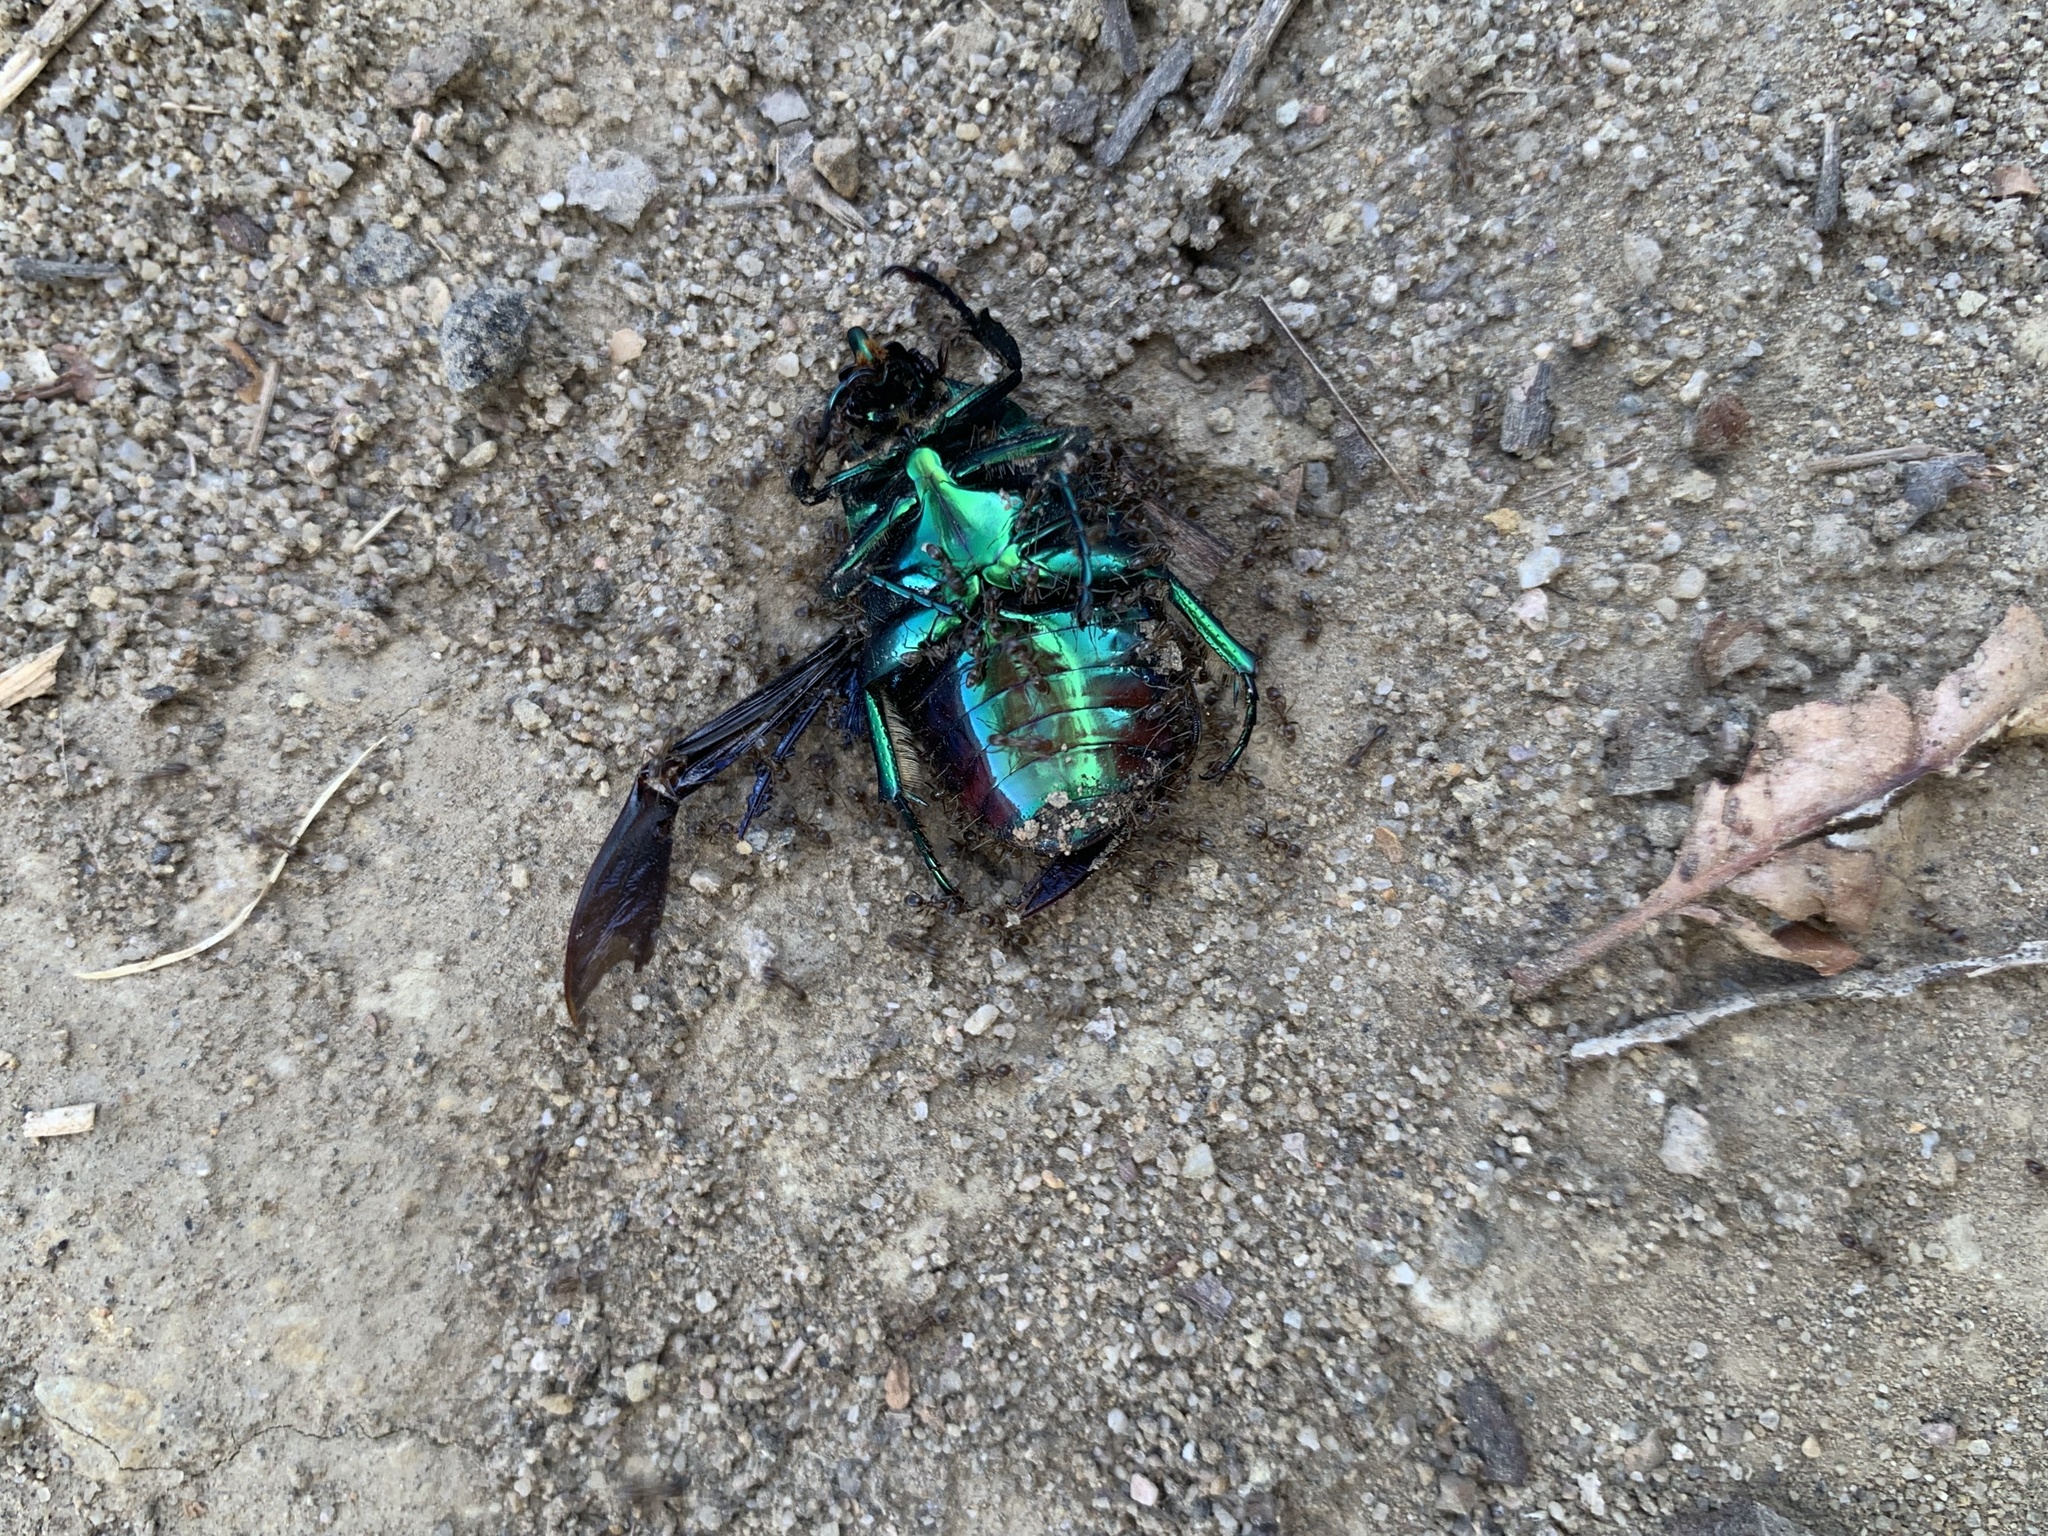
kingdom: Animalia
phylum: Arthropoda
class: Insecta
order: Coleoptera
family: Scarabaeidae
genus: Cotinis
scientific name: Cotinis mutabilis
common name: Figeater beetle
